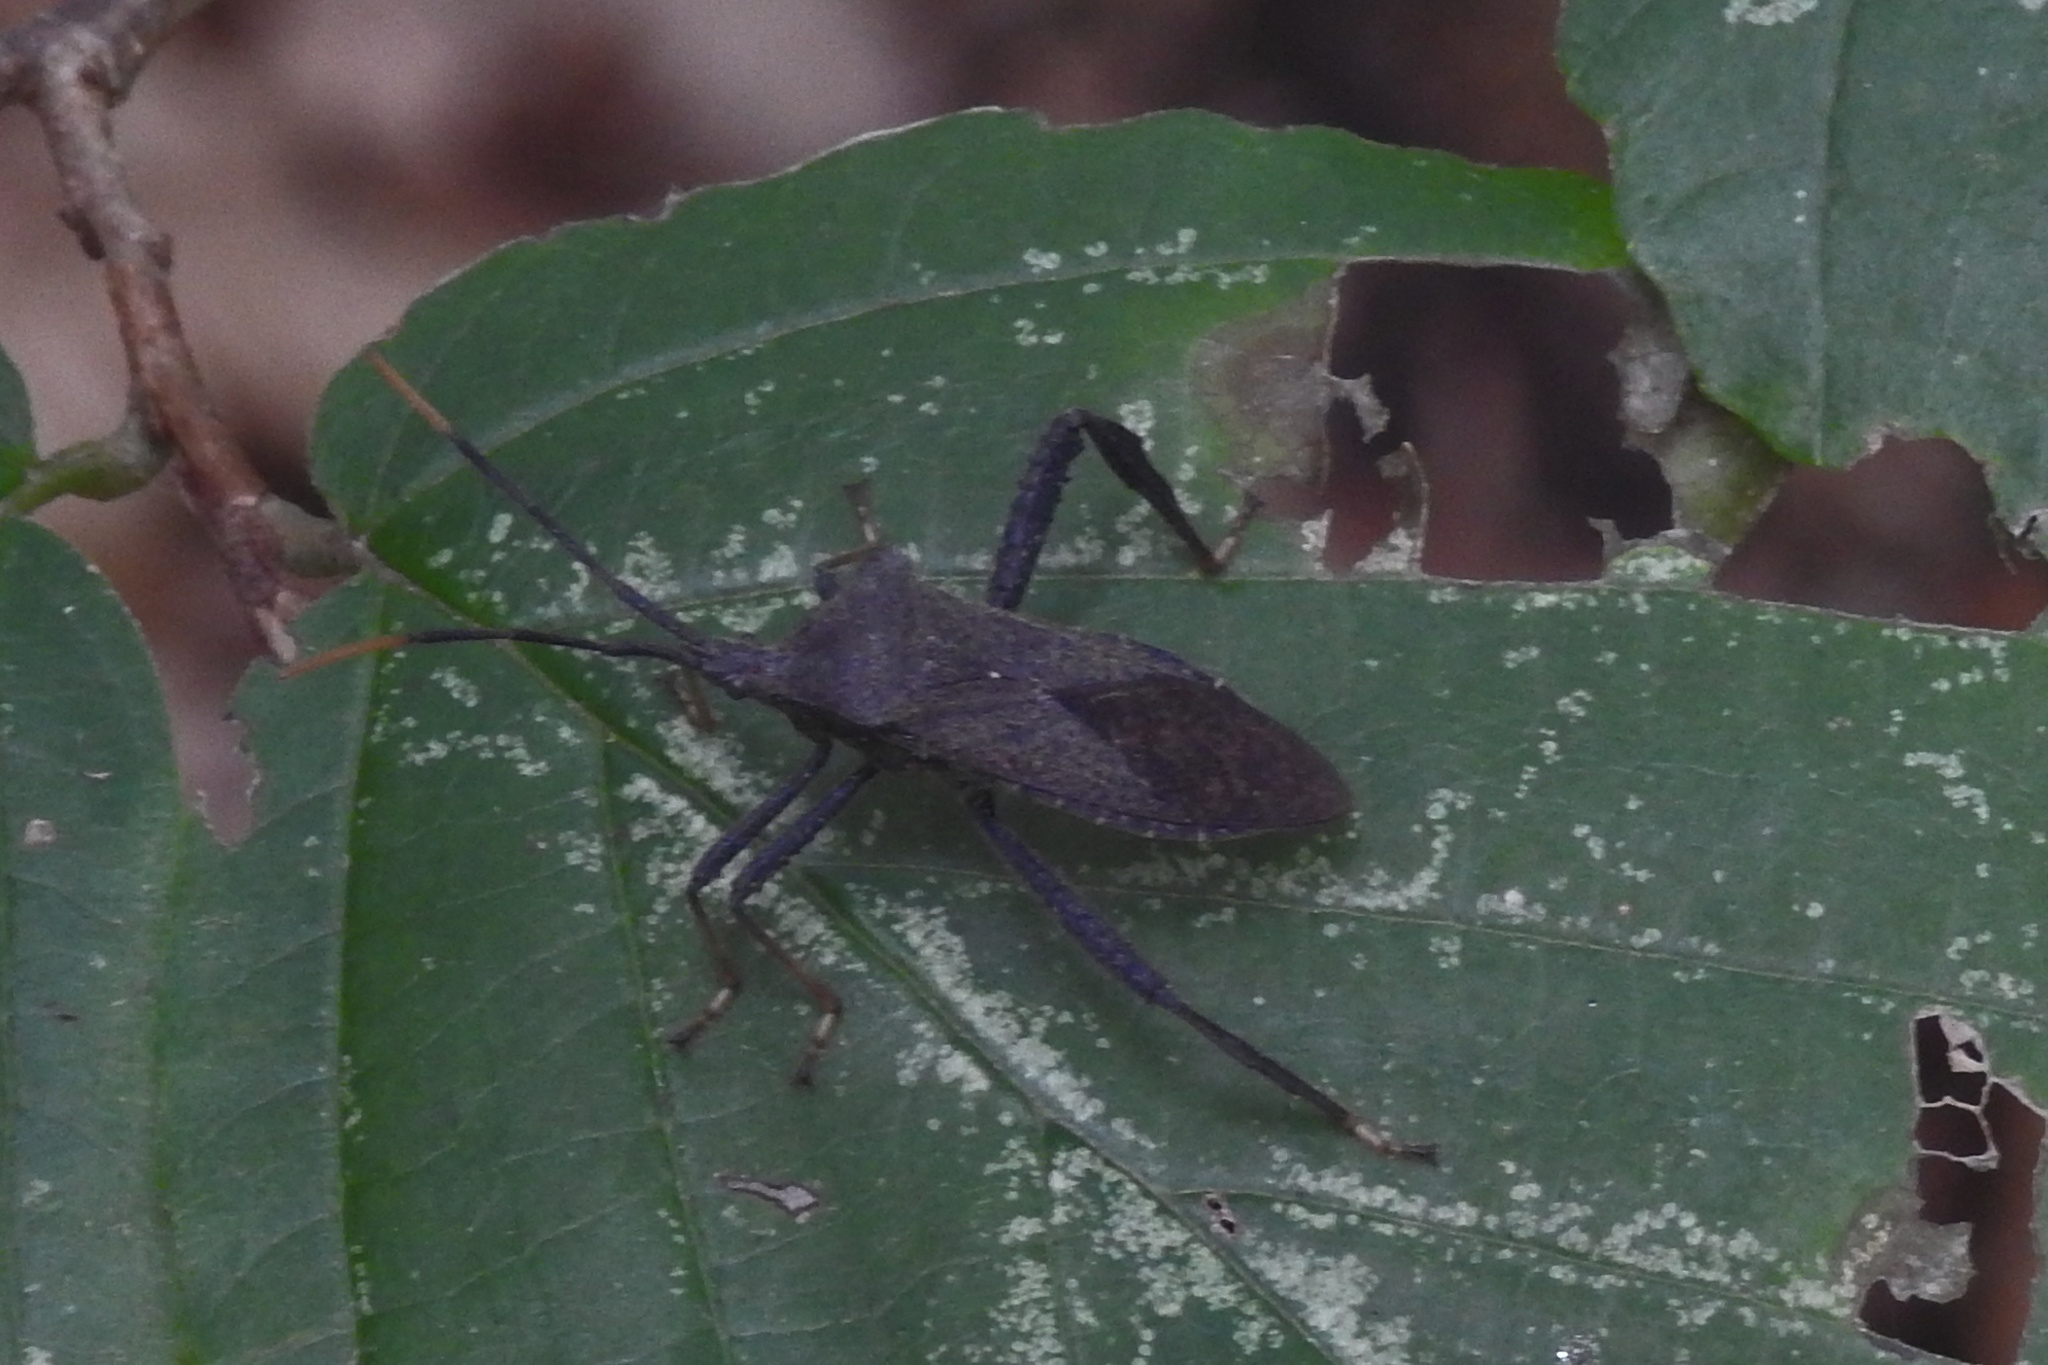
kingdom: Animalia
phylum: Arthropoda
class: Insecta
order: Hemiptera
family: Coreidae
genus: Acanthocephala
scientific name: Acanthocephala terminalis
